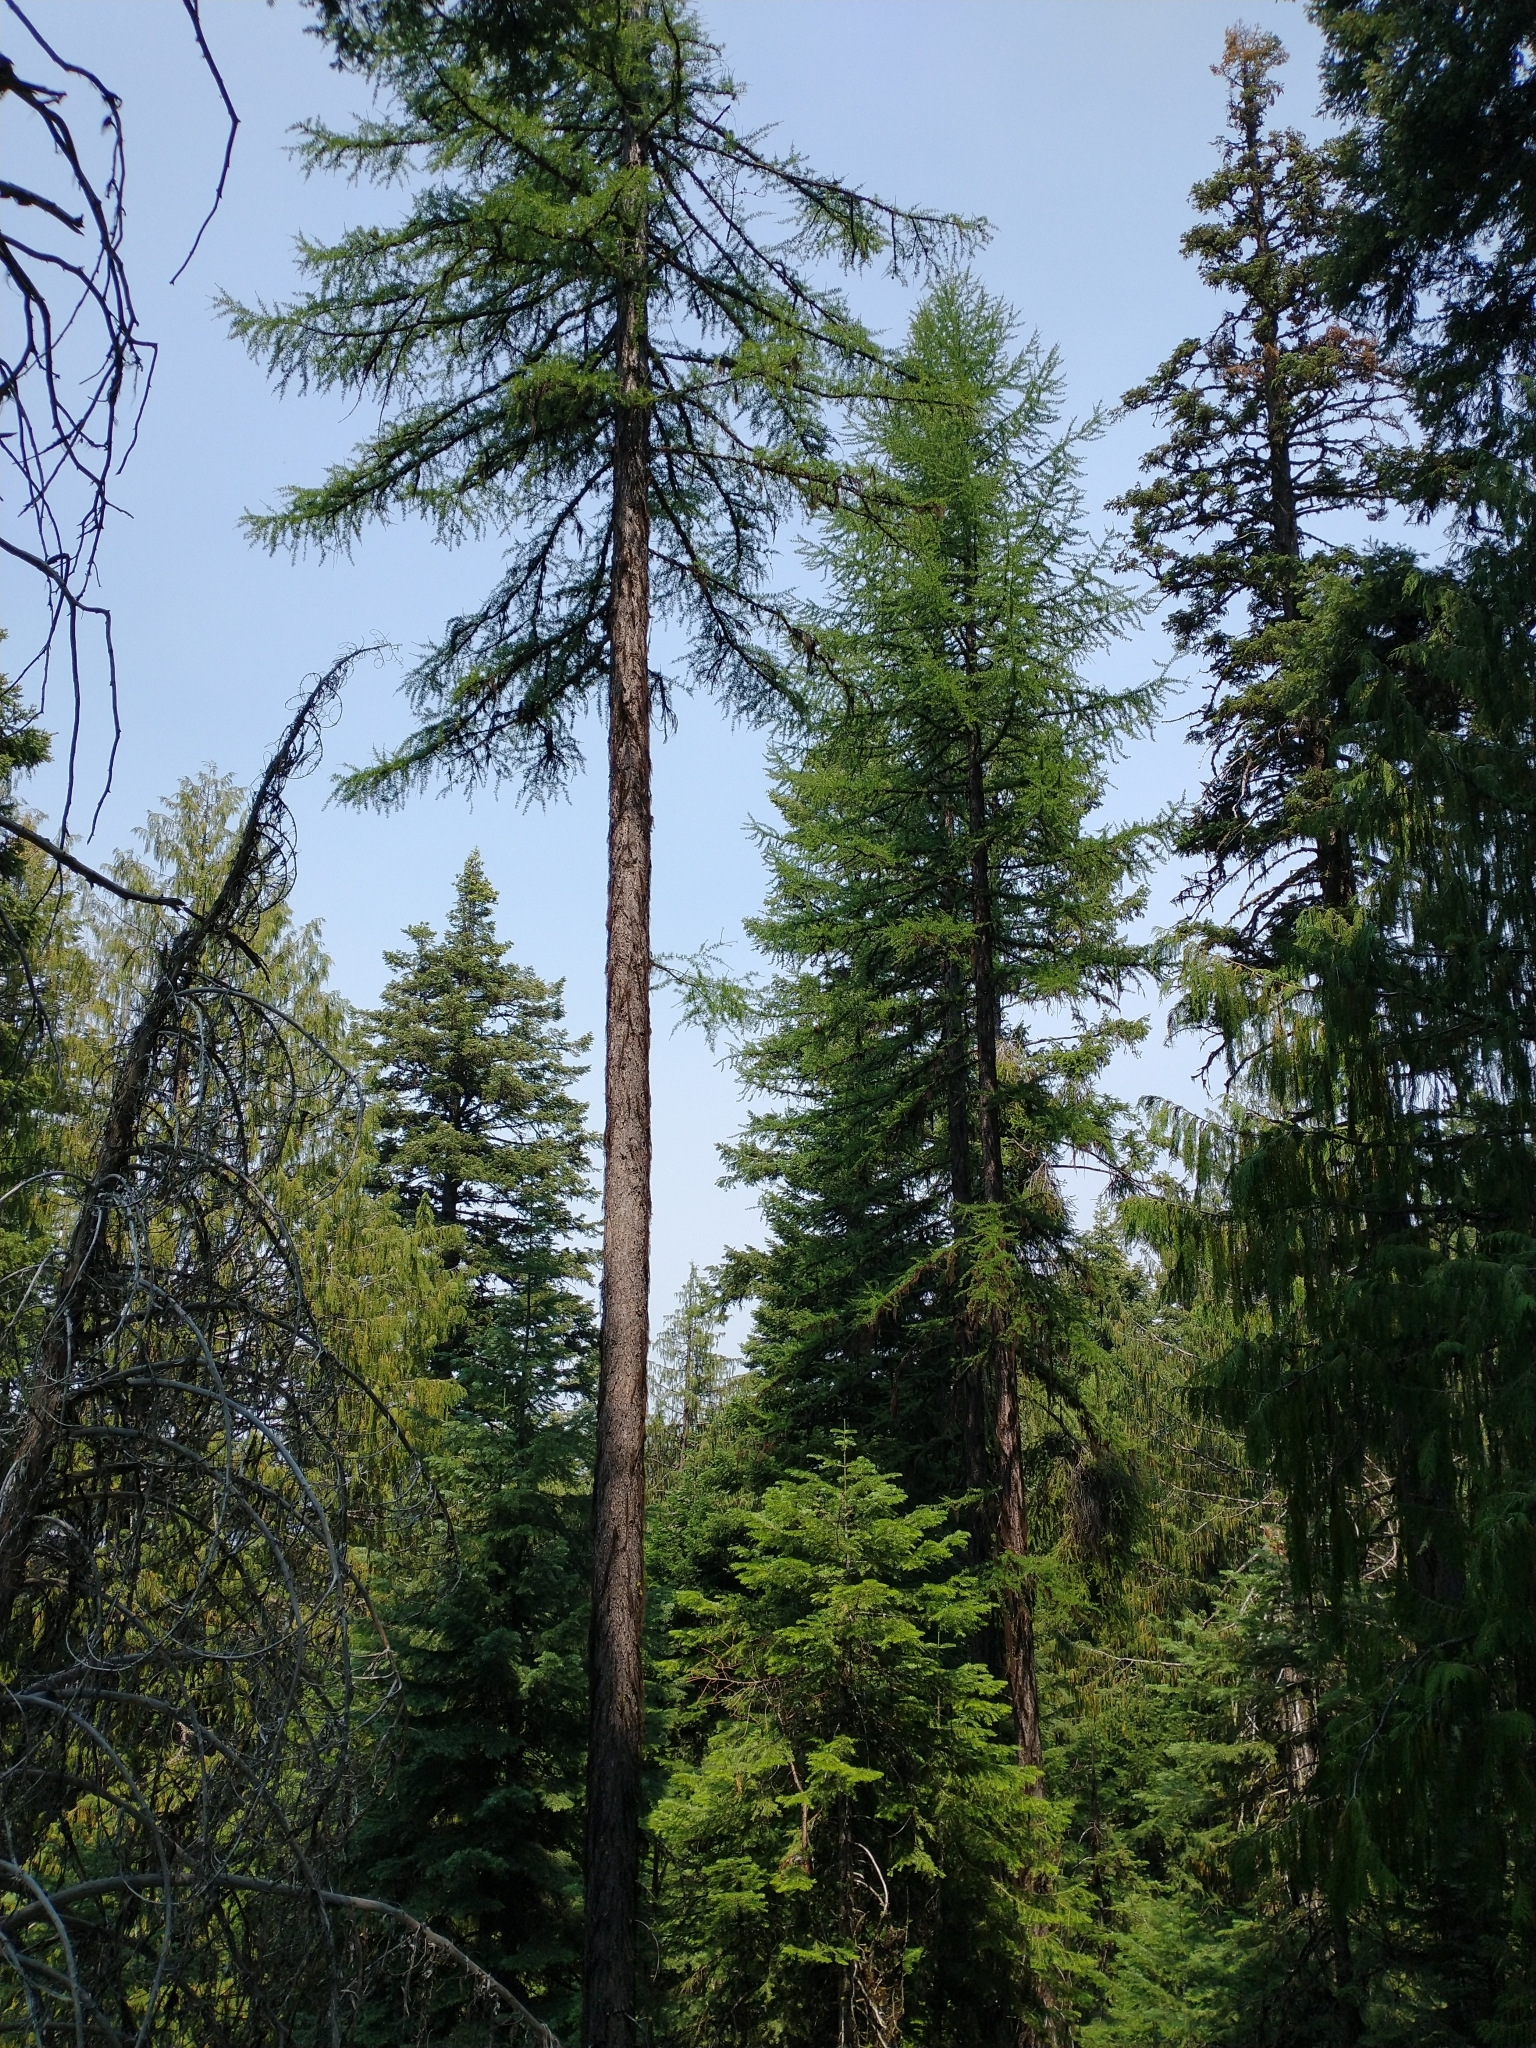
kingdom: Plantae
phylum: Tracheophyta
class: Pinopsida
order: Pinales
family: Pinaceae
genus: Larix
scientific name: Larix occidentalis
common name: Western larch
